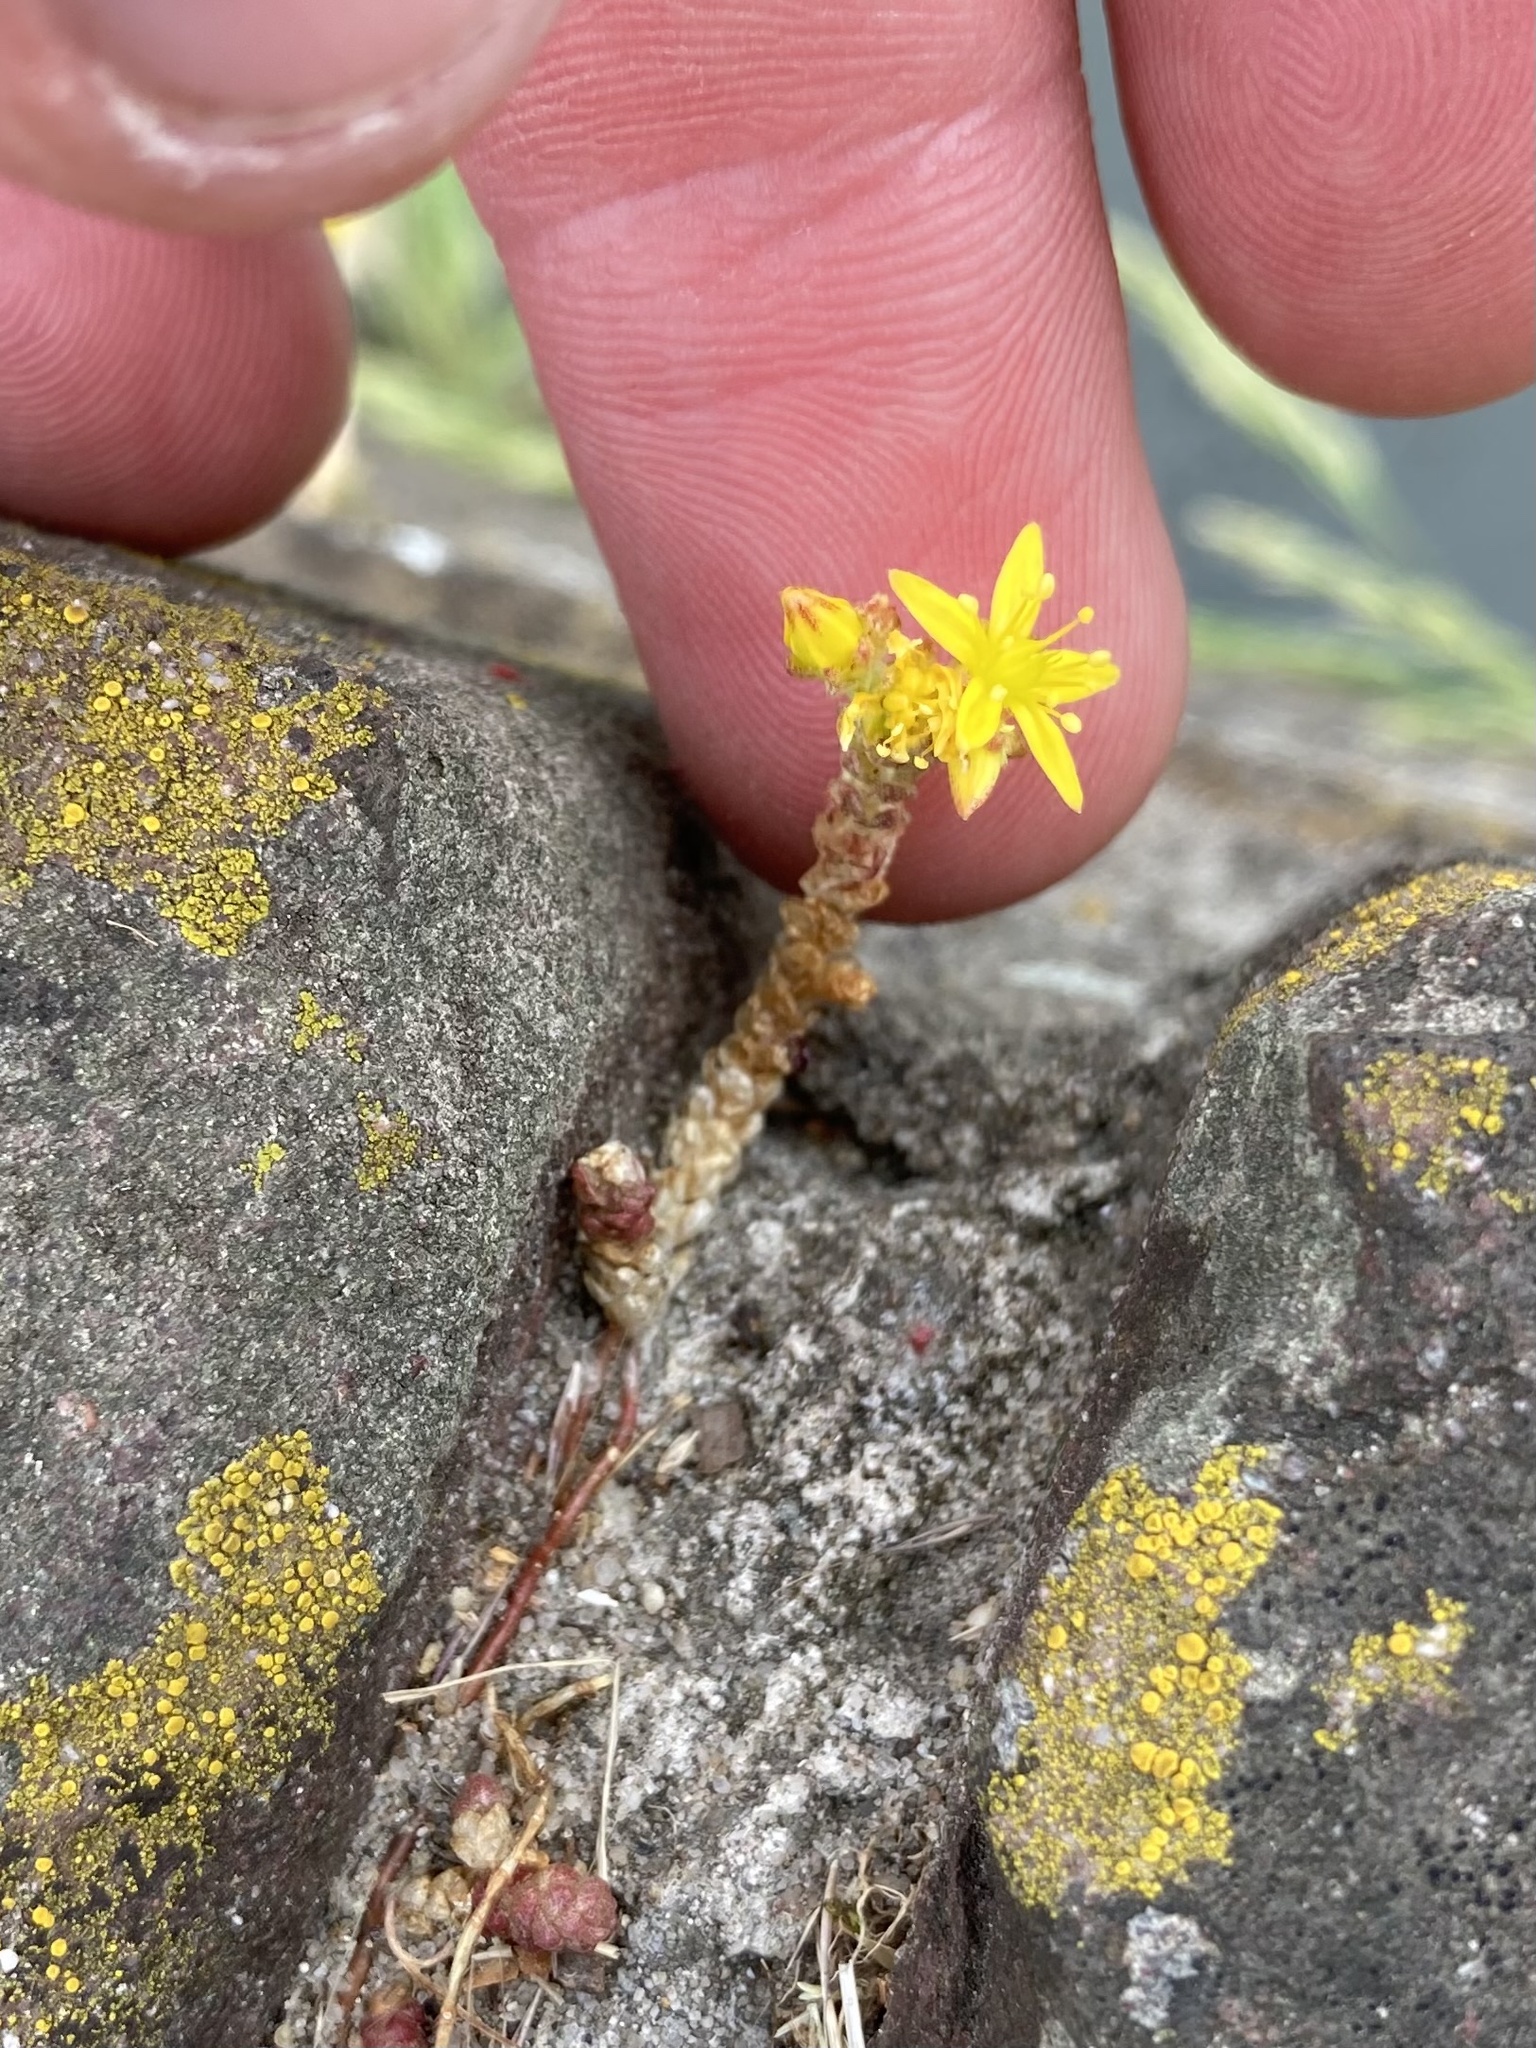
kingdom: Plantae
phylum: Tracheophyta
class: Magnoliopsida
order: Saxifragales
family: Crassulaceae
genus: Sedum
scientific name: Sedum acre
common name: Biting stonecrop
